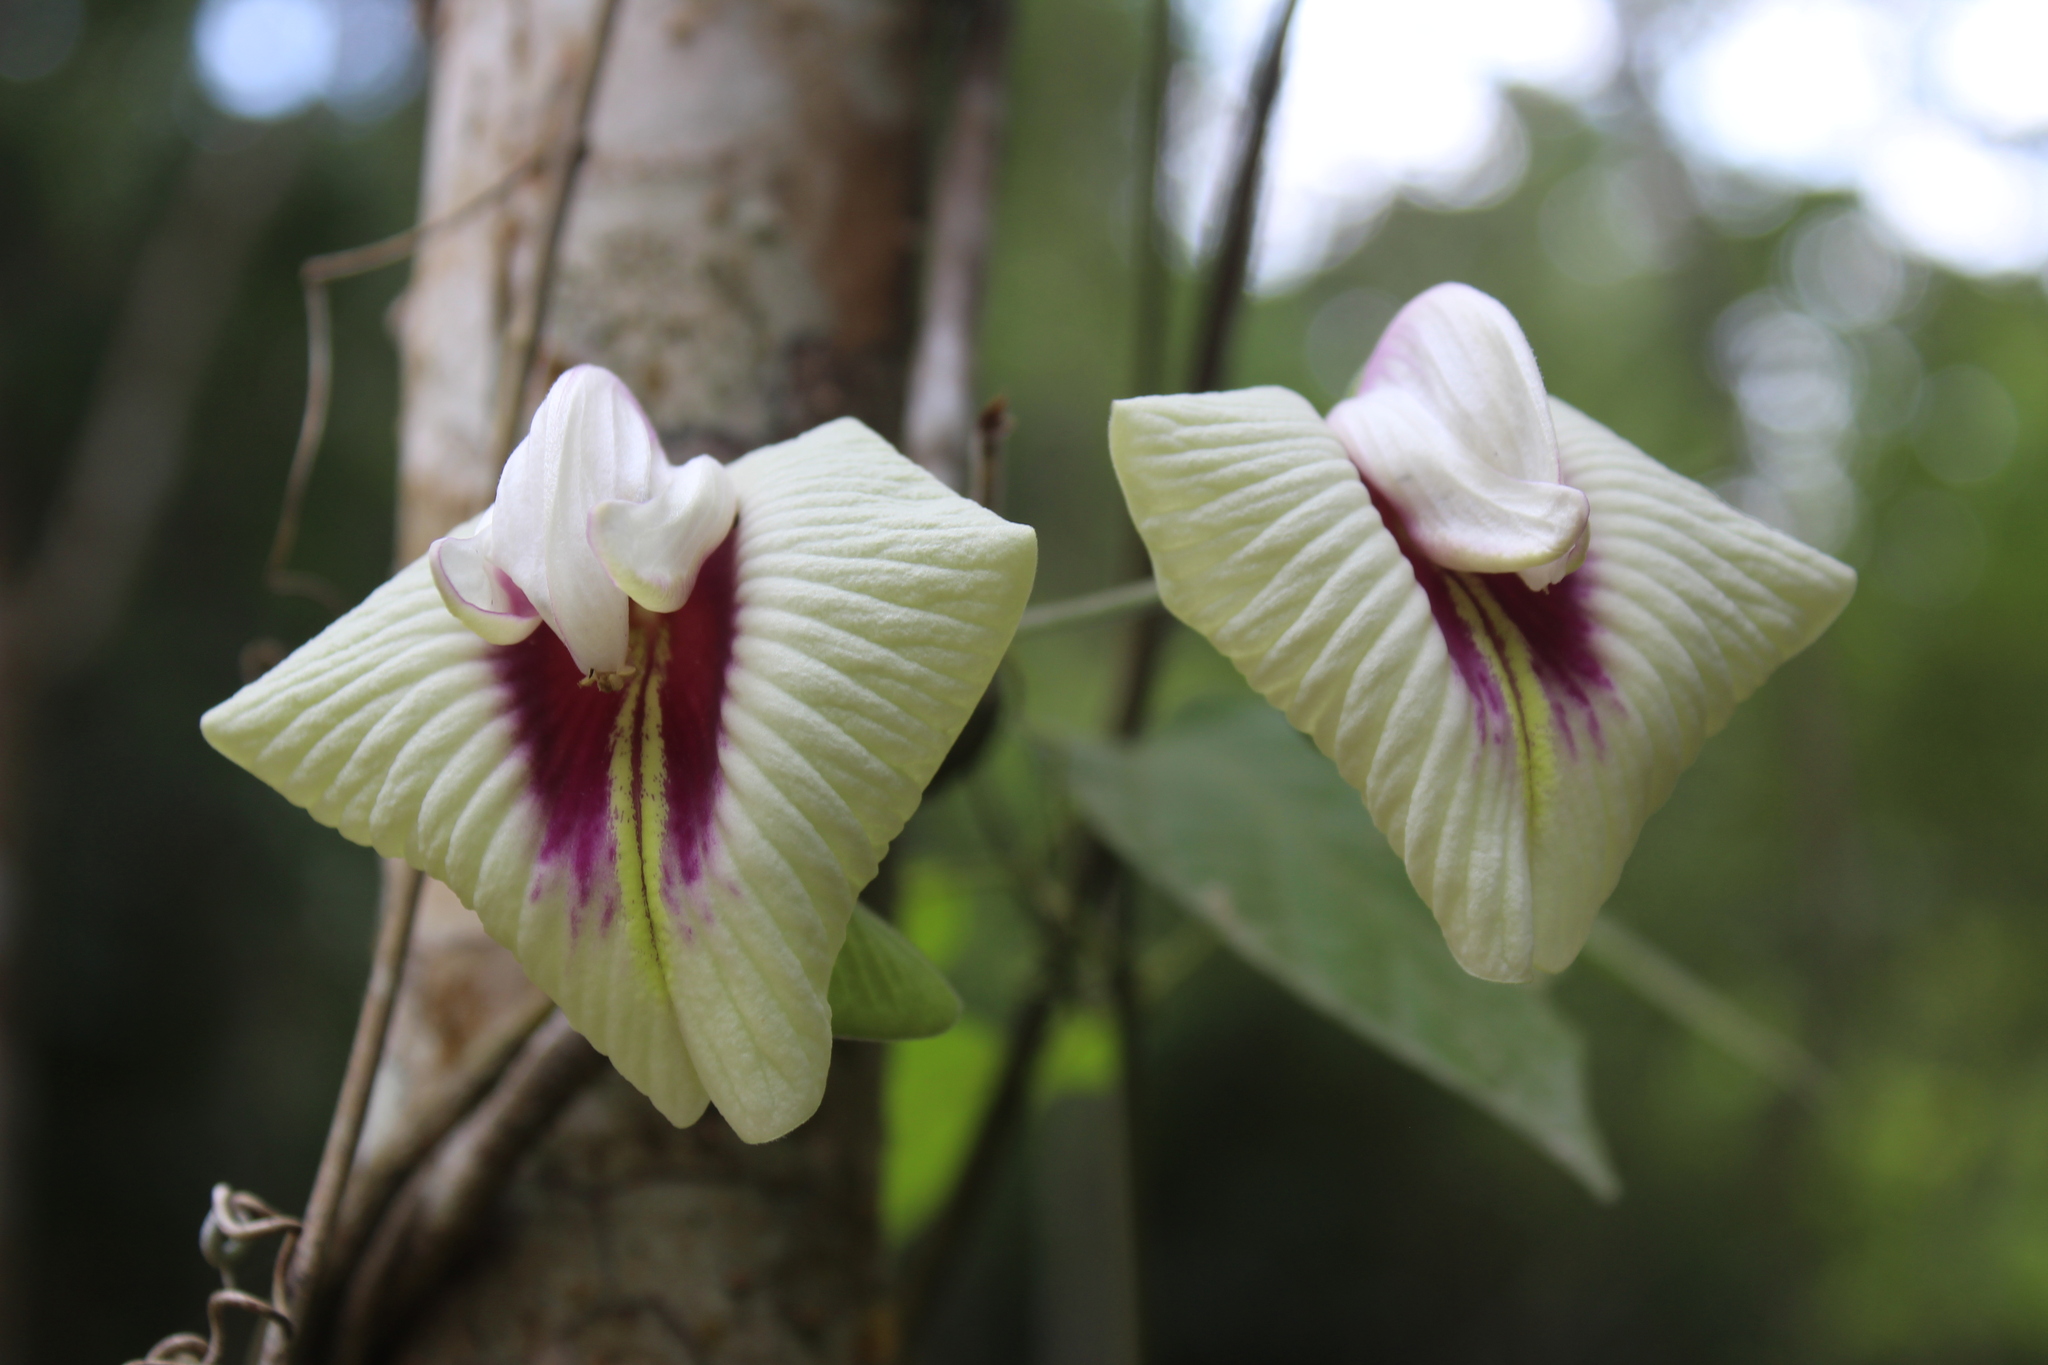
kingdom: Plantae
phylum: Tracheophyta
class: Magnoliopsida
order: Fabales
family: Fabaceae
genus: Centrosema
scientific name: Centrosema plumieri
